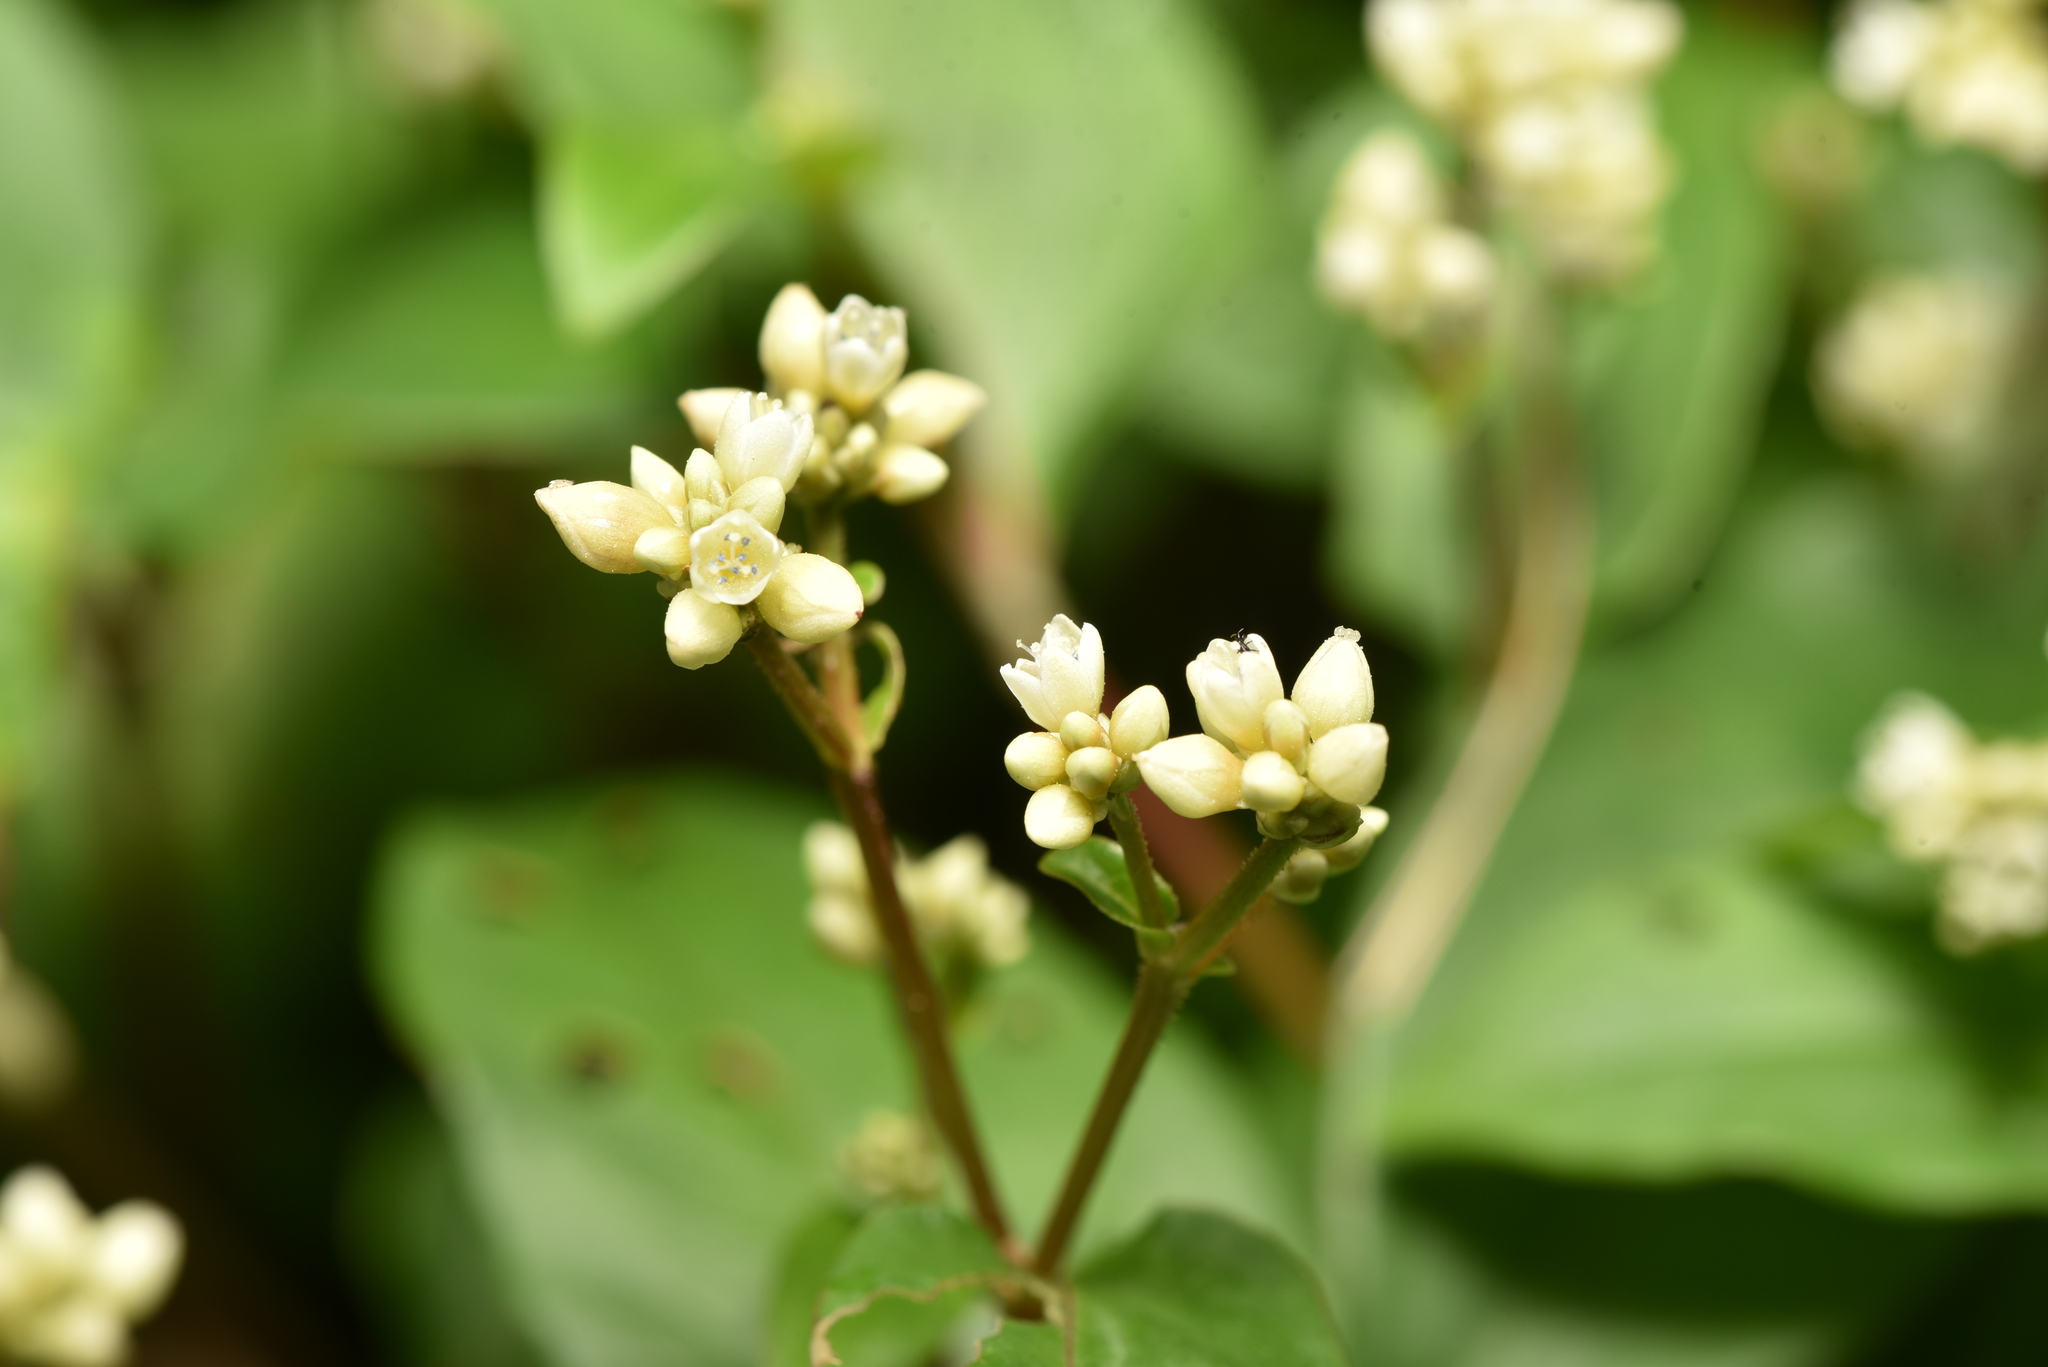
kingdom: Plantae
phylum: Tracheophyta
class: Magnoliopsida
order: Caryophyllales
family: Polygonaceae
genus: Persicaria
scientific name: Persicaria chinensis
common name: Chinese knotweed
